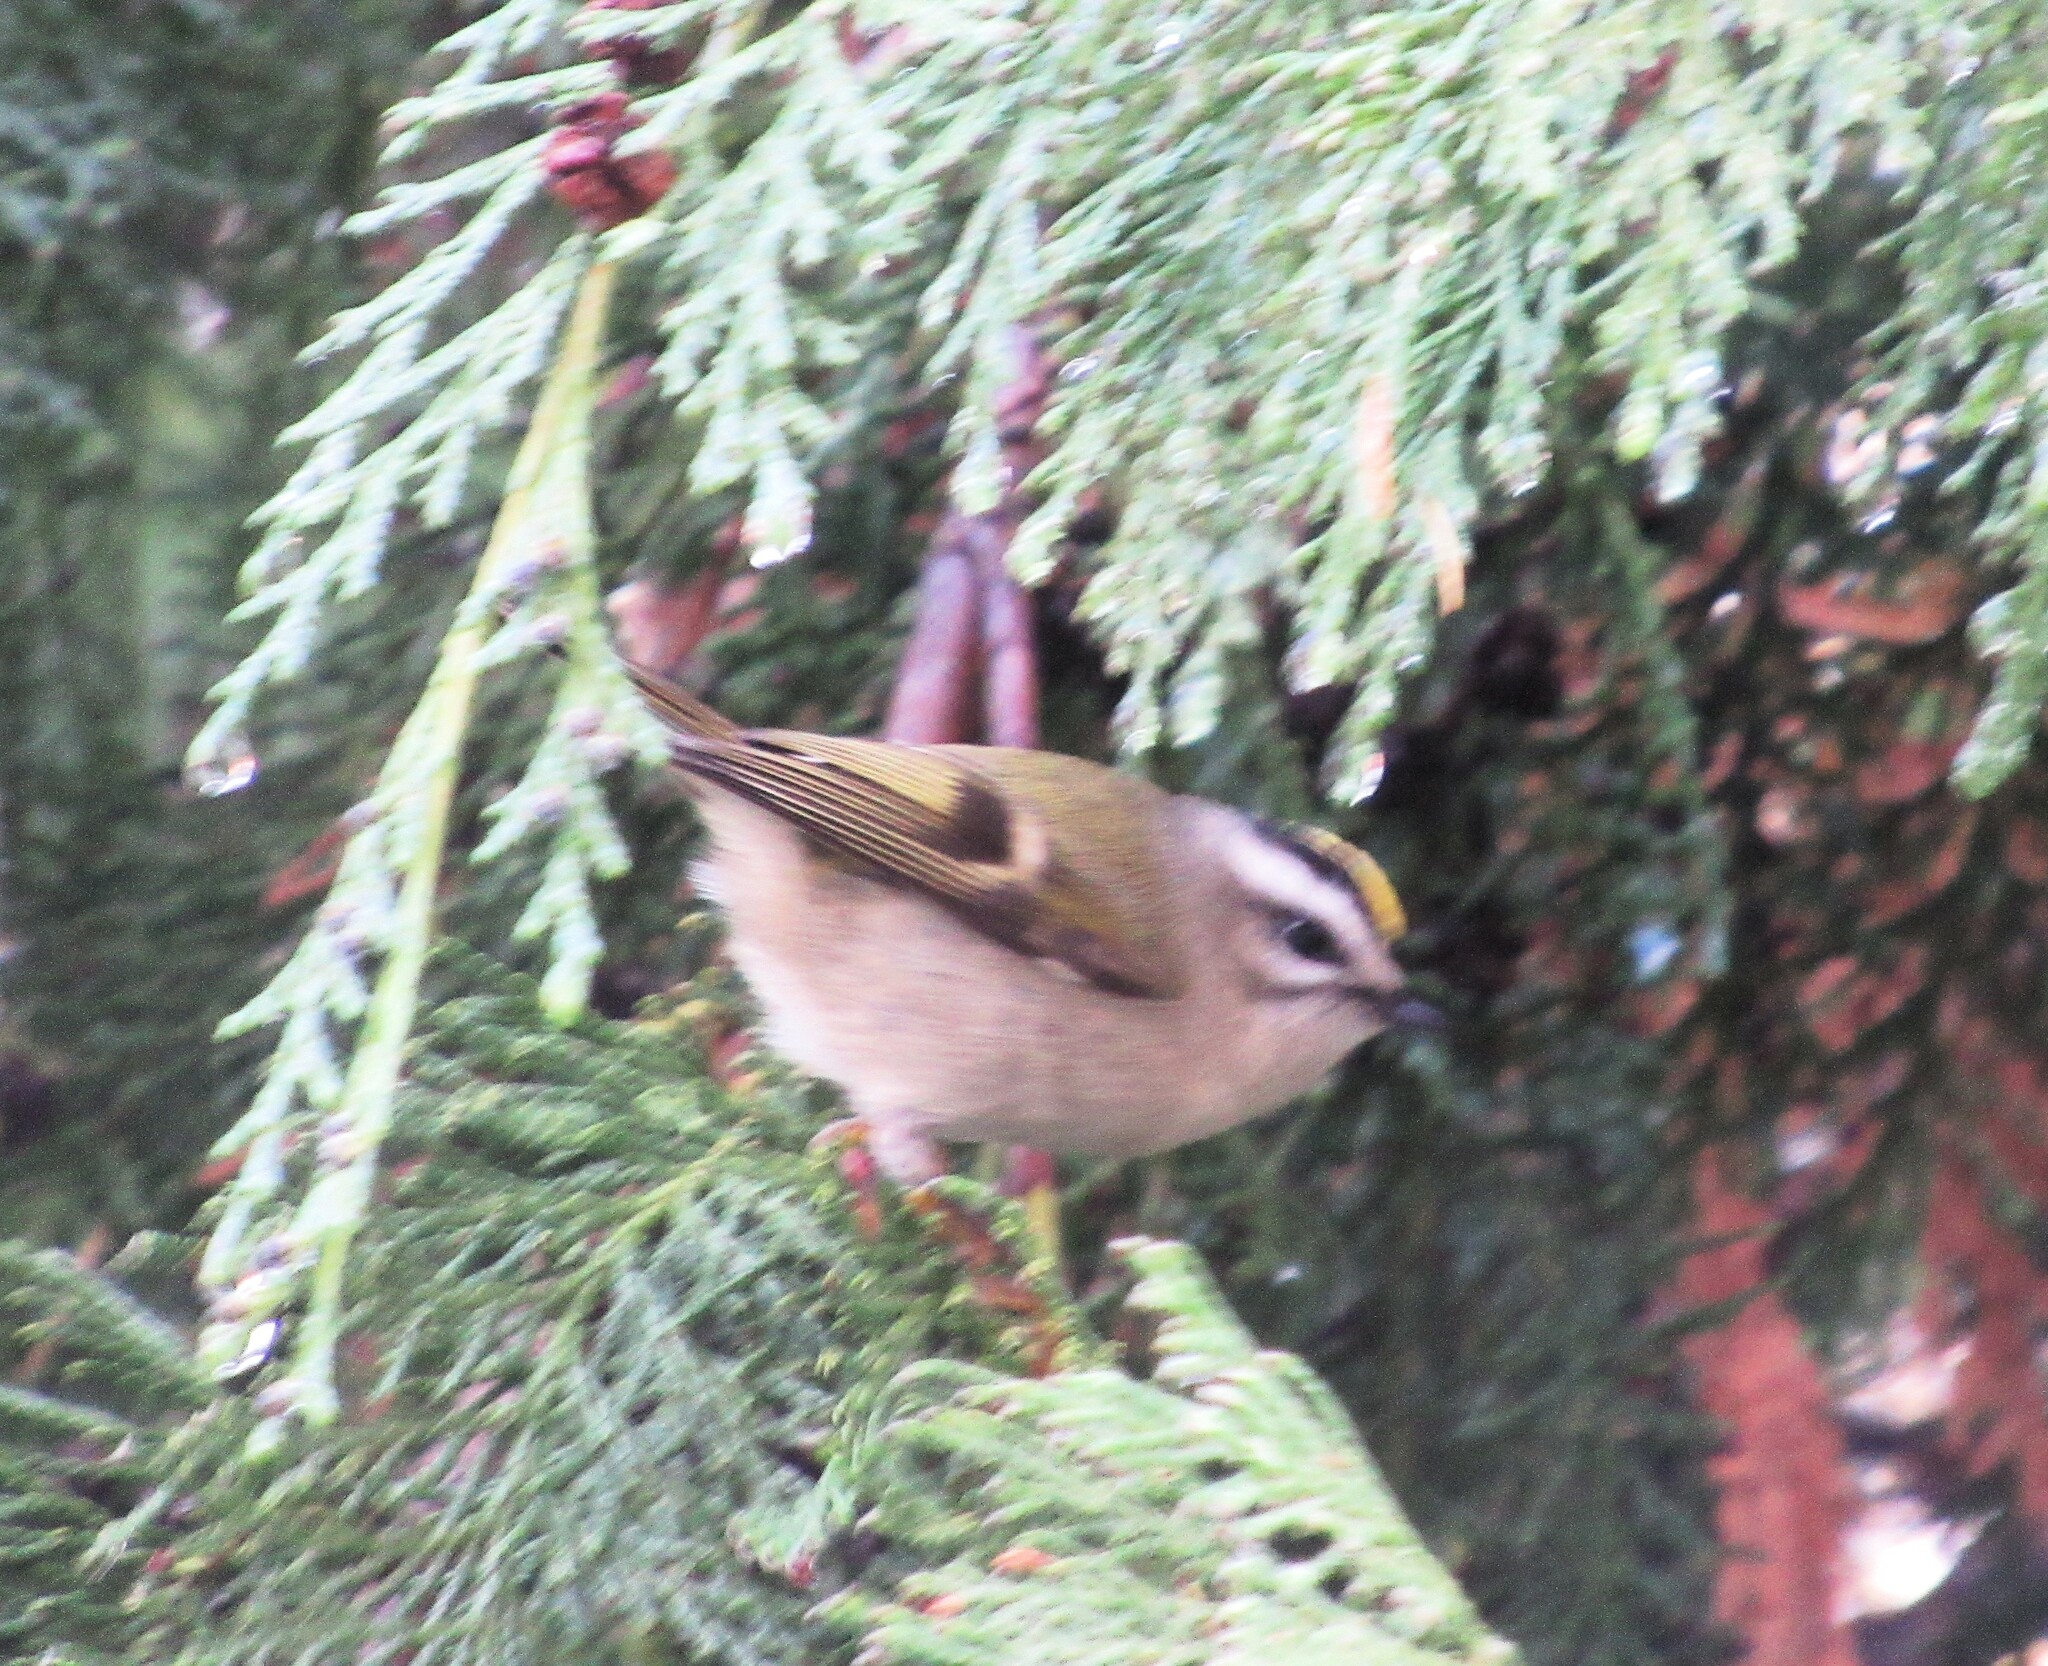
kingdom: Animalia
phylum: Chordata
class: Aves
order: Passeriformes
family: Regulidae
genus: Regulus
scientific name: Regulus satrapa
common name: Golden-crowned kinglet
